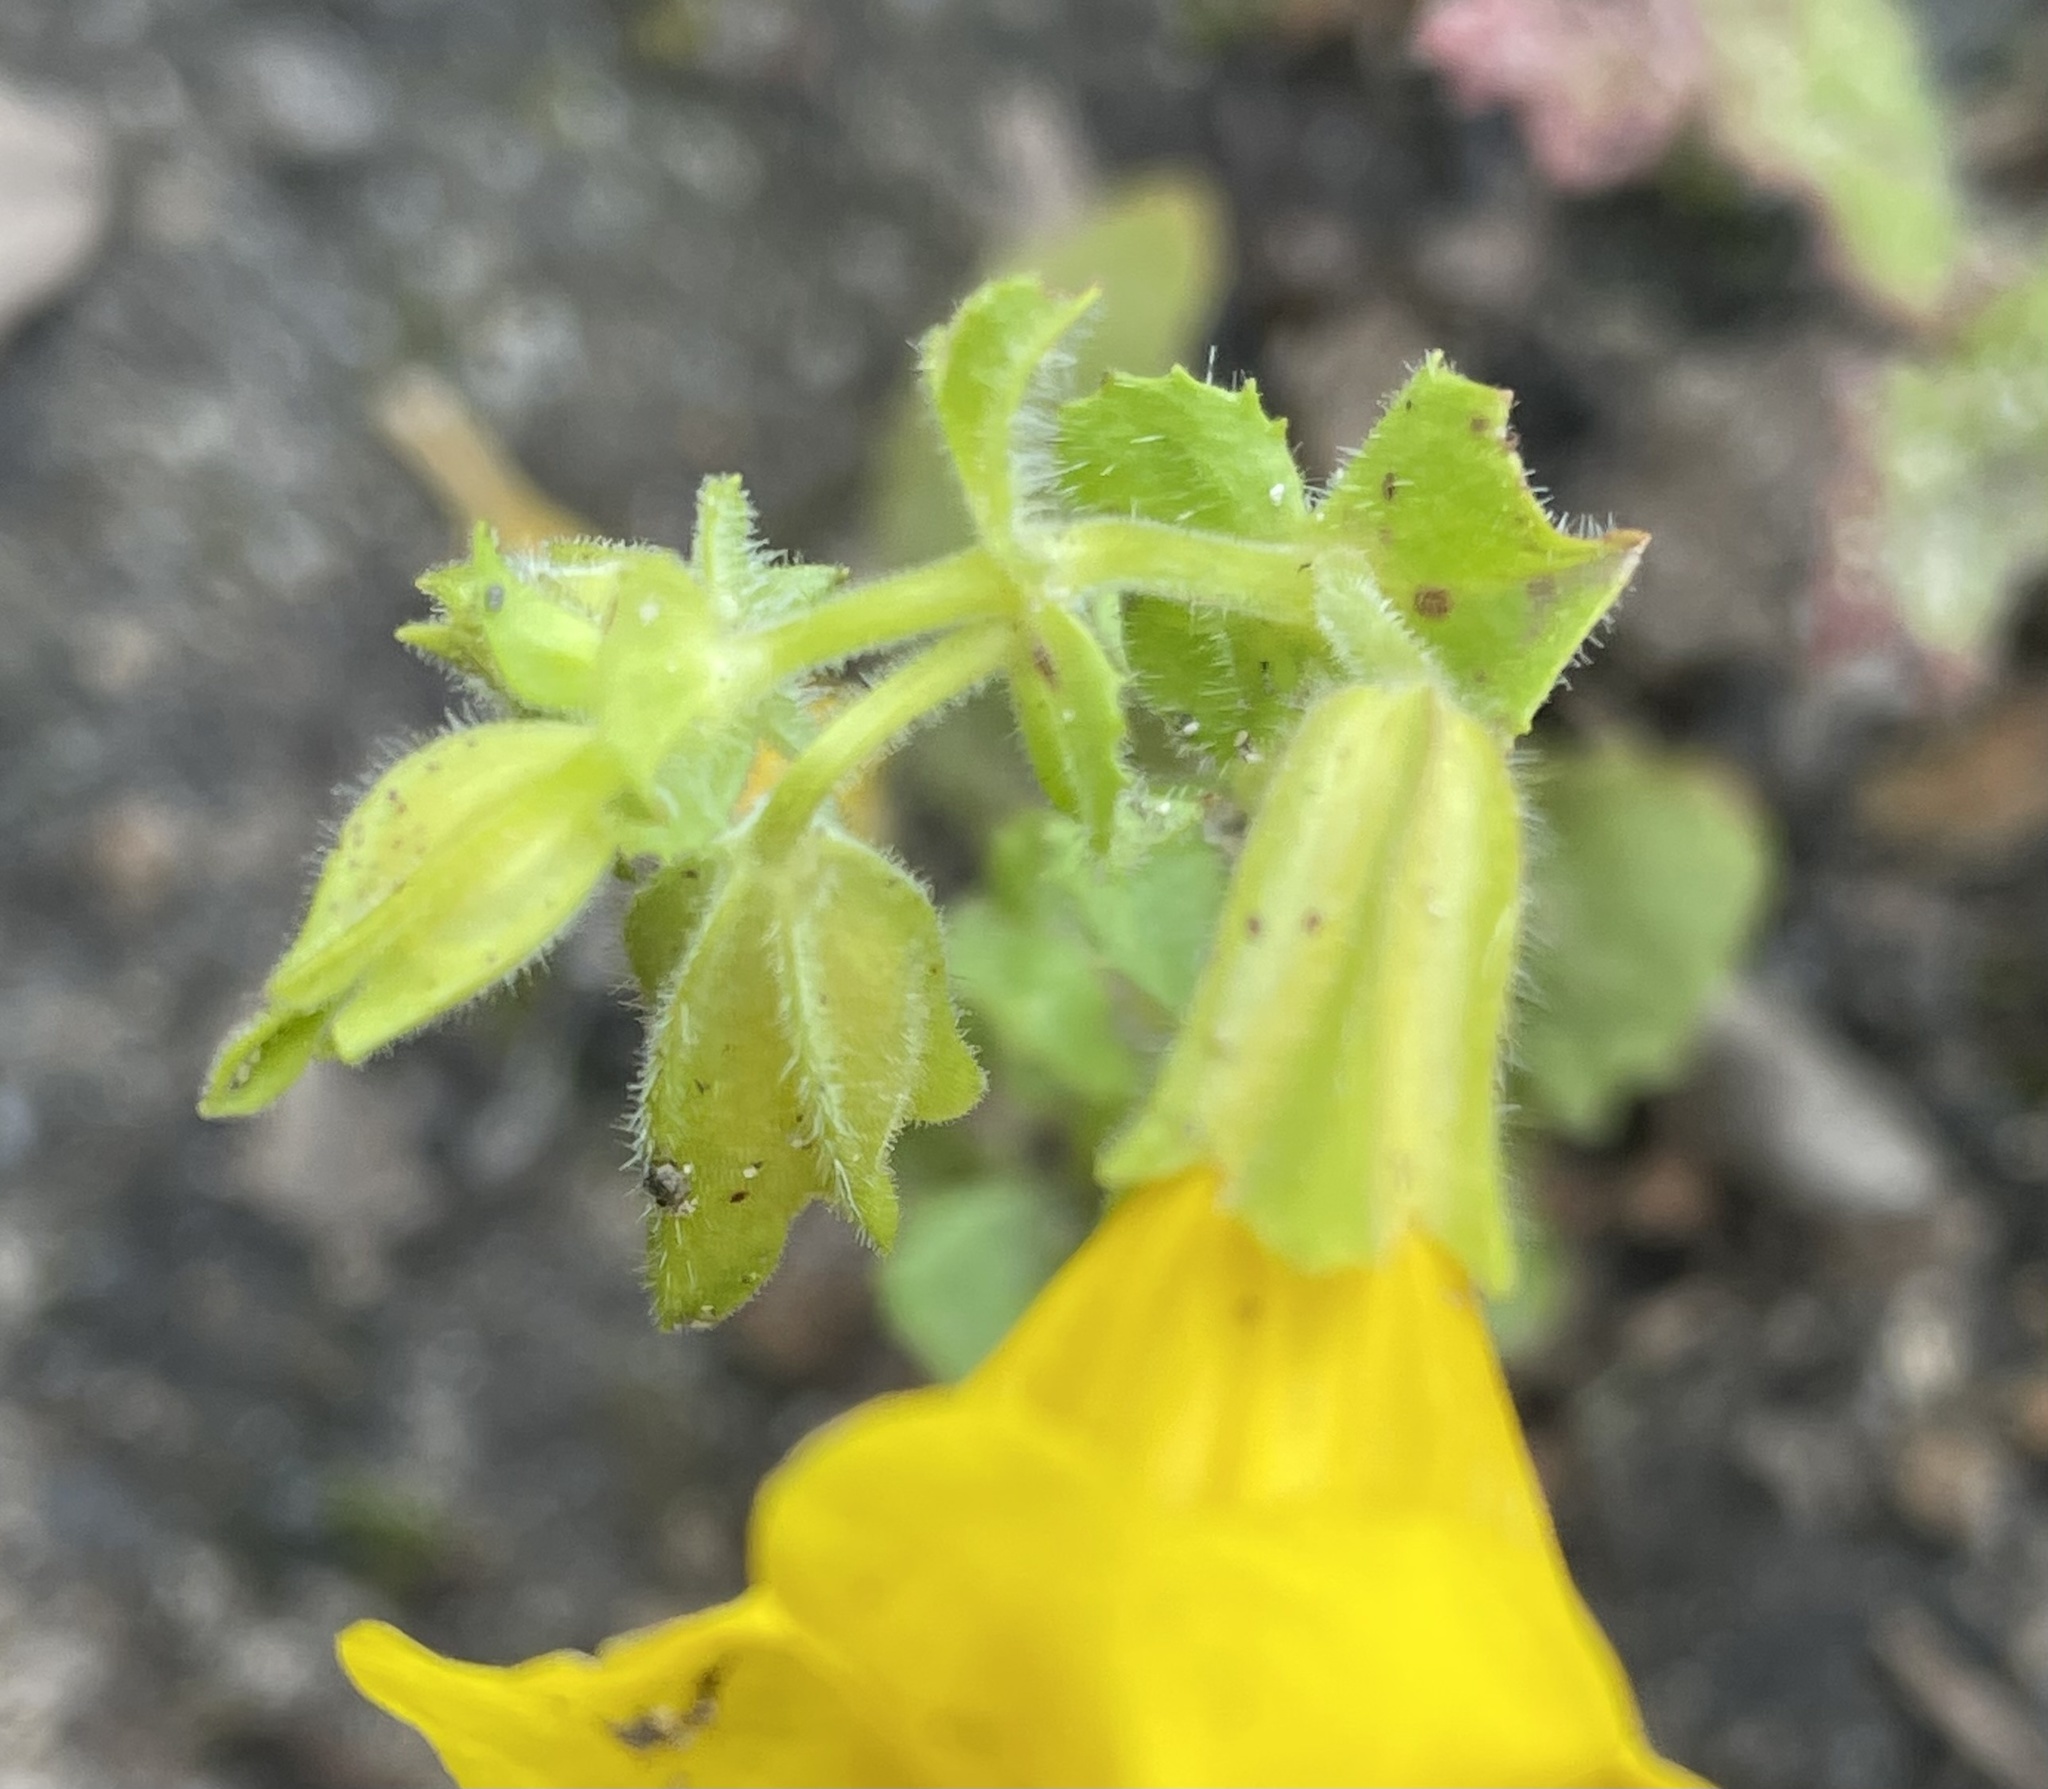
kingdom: Plantae
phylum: Tracheophyta
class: Magnoliopsida
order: Lamiales
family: Phrymaceae
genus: Erythranthe
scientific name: Erythranthe guttata
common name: Monkeyflower
